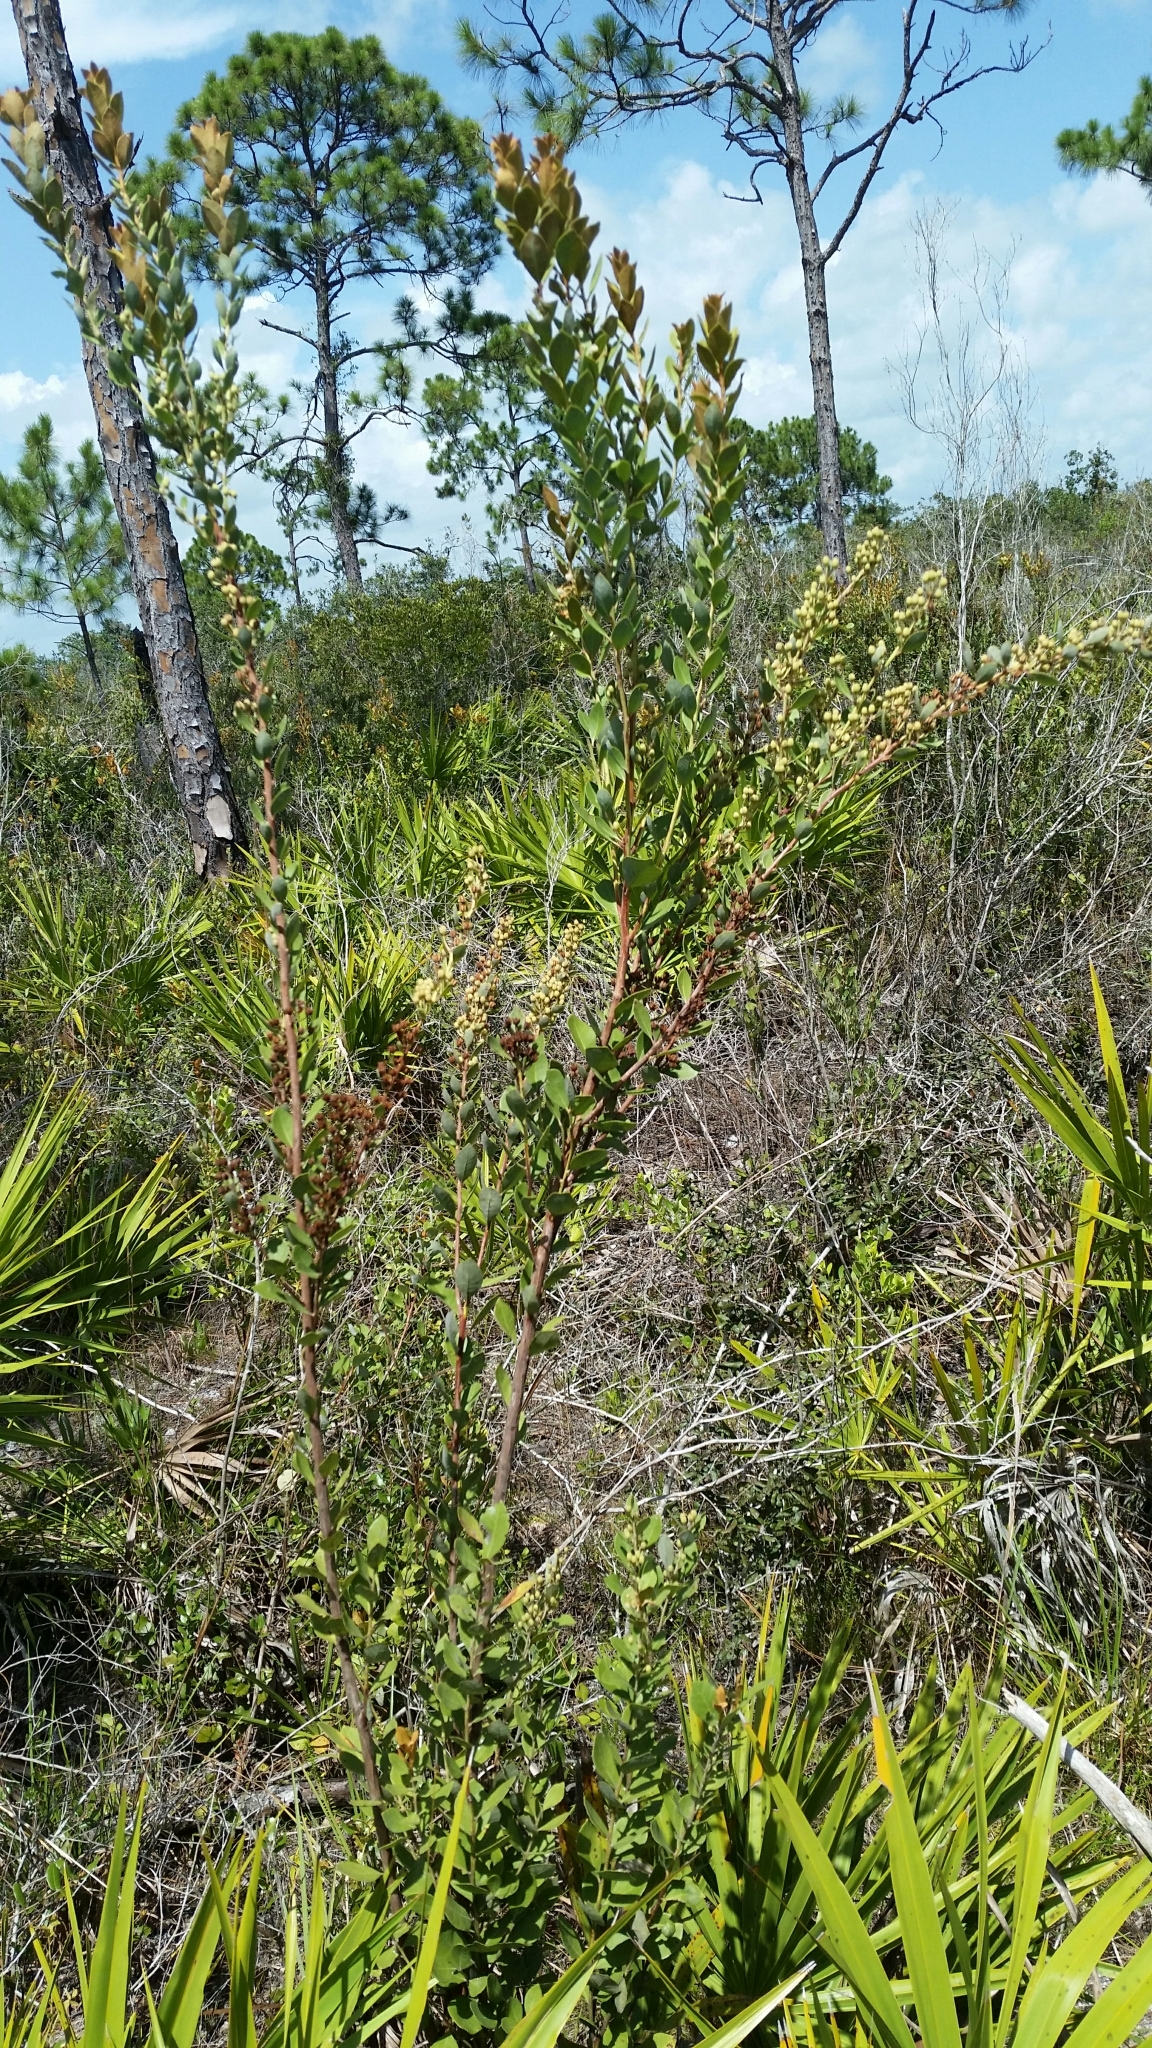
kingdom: Plantae
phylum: Tracheophyta
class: Magnoliopsida
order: Ericales
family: Ericaceae
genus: Lyonia
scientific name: Lyonia fruticosa
